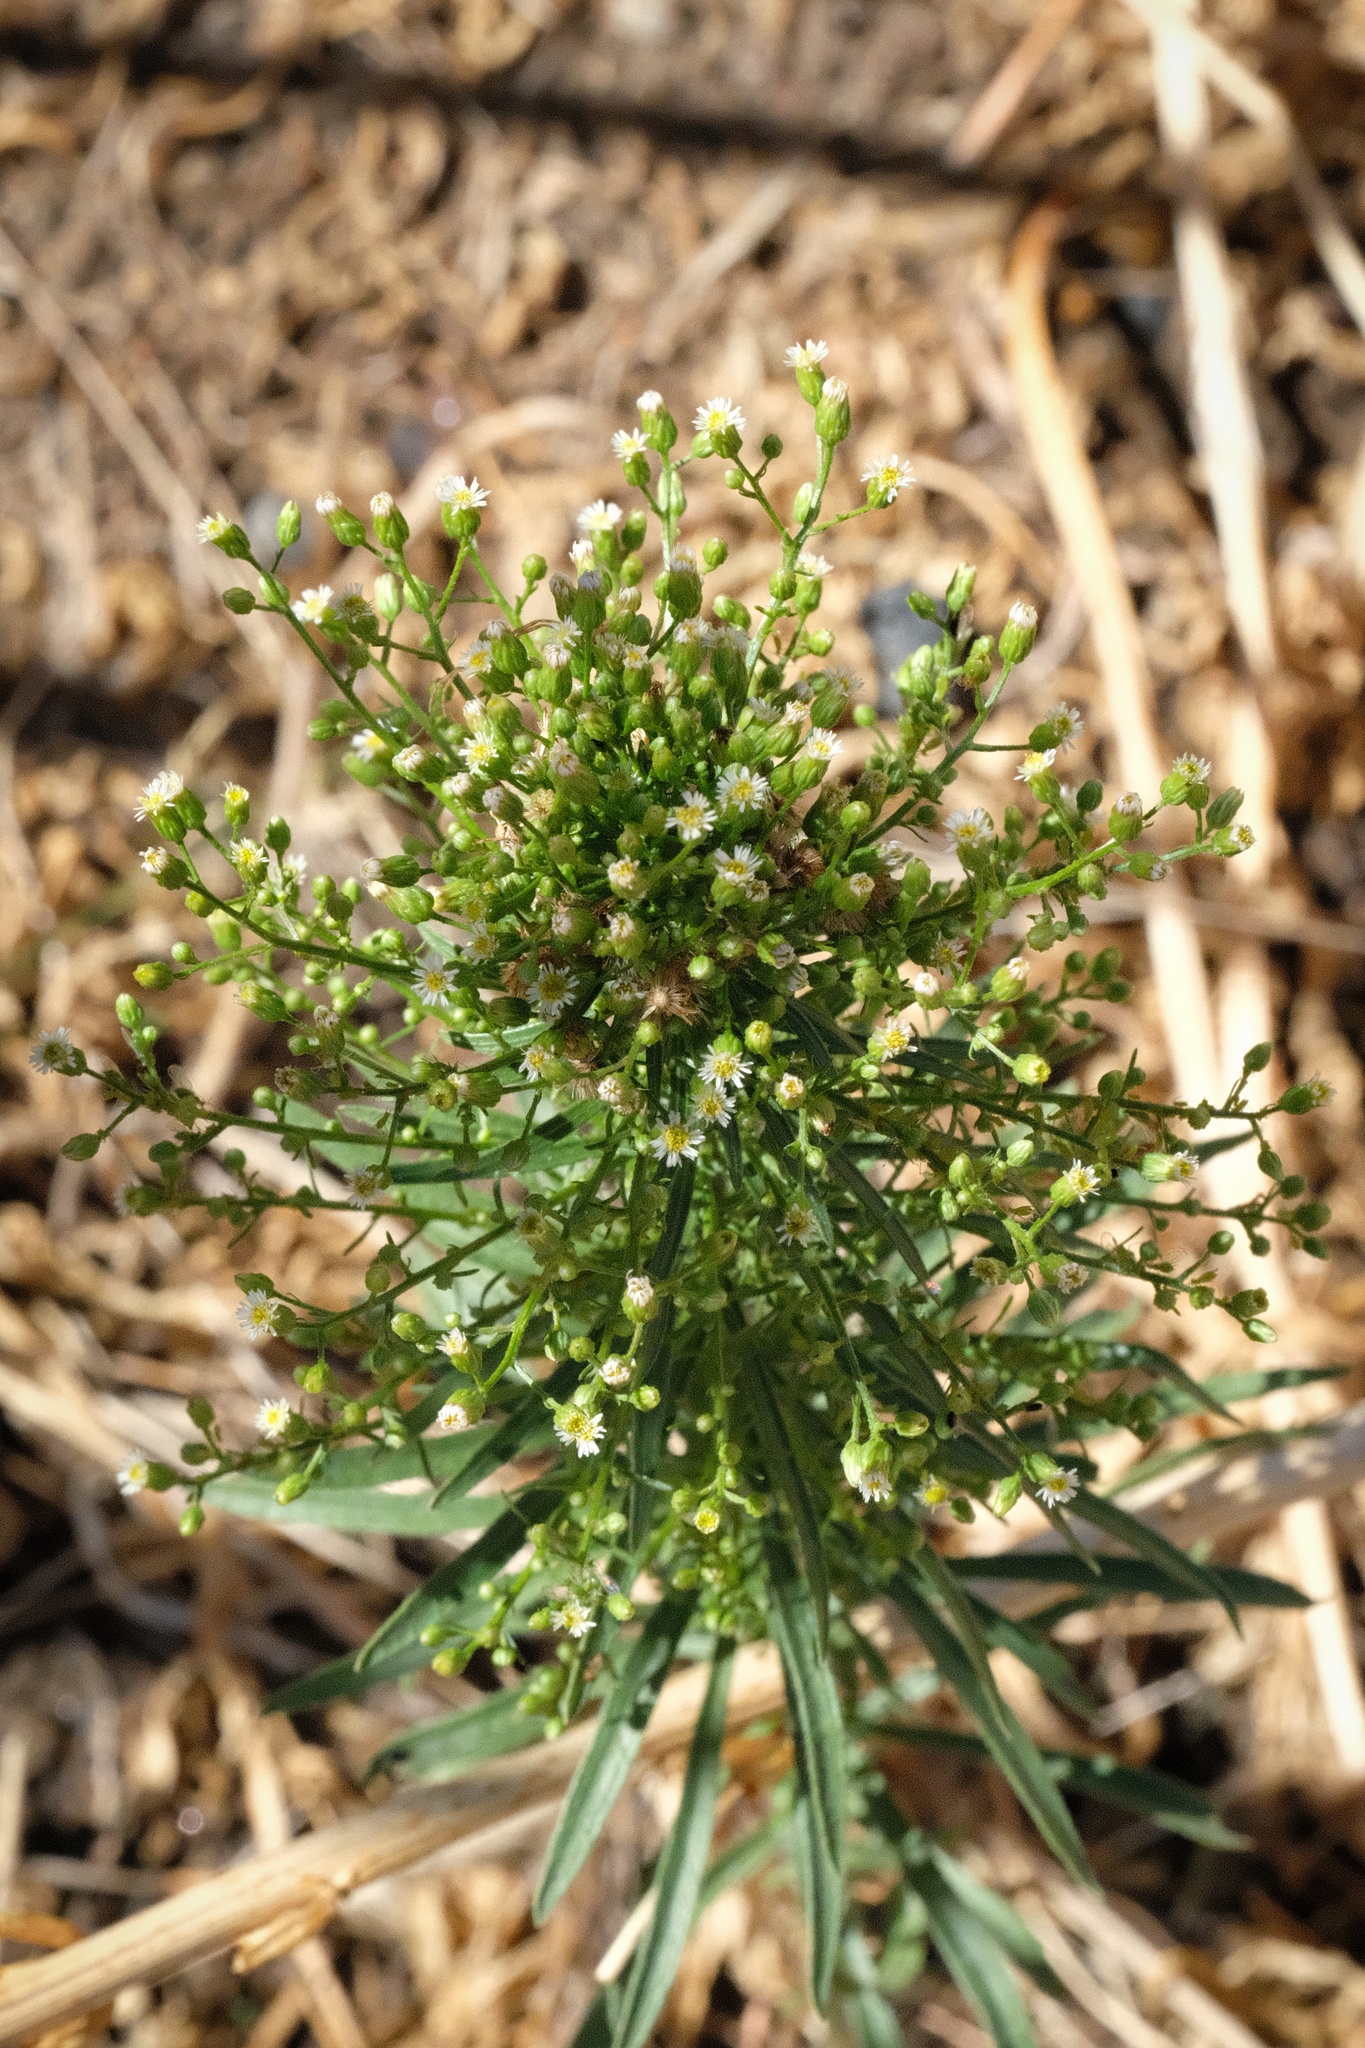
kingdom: Plantae
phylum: Tracheophyta
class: Magnoliopsida
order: Asterales
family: Asteraceae
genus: Erigeron
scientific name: Erigeron canadensis
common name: Canadian fleabane
